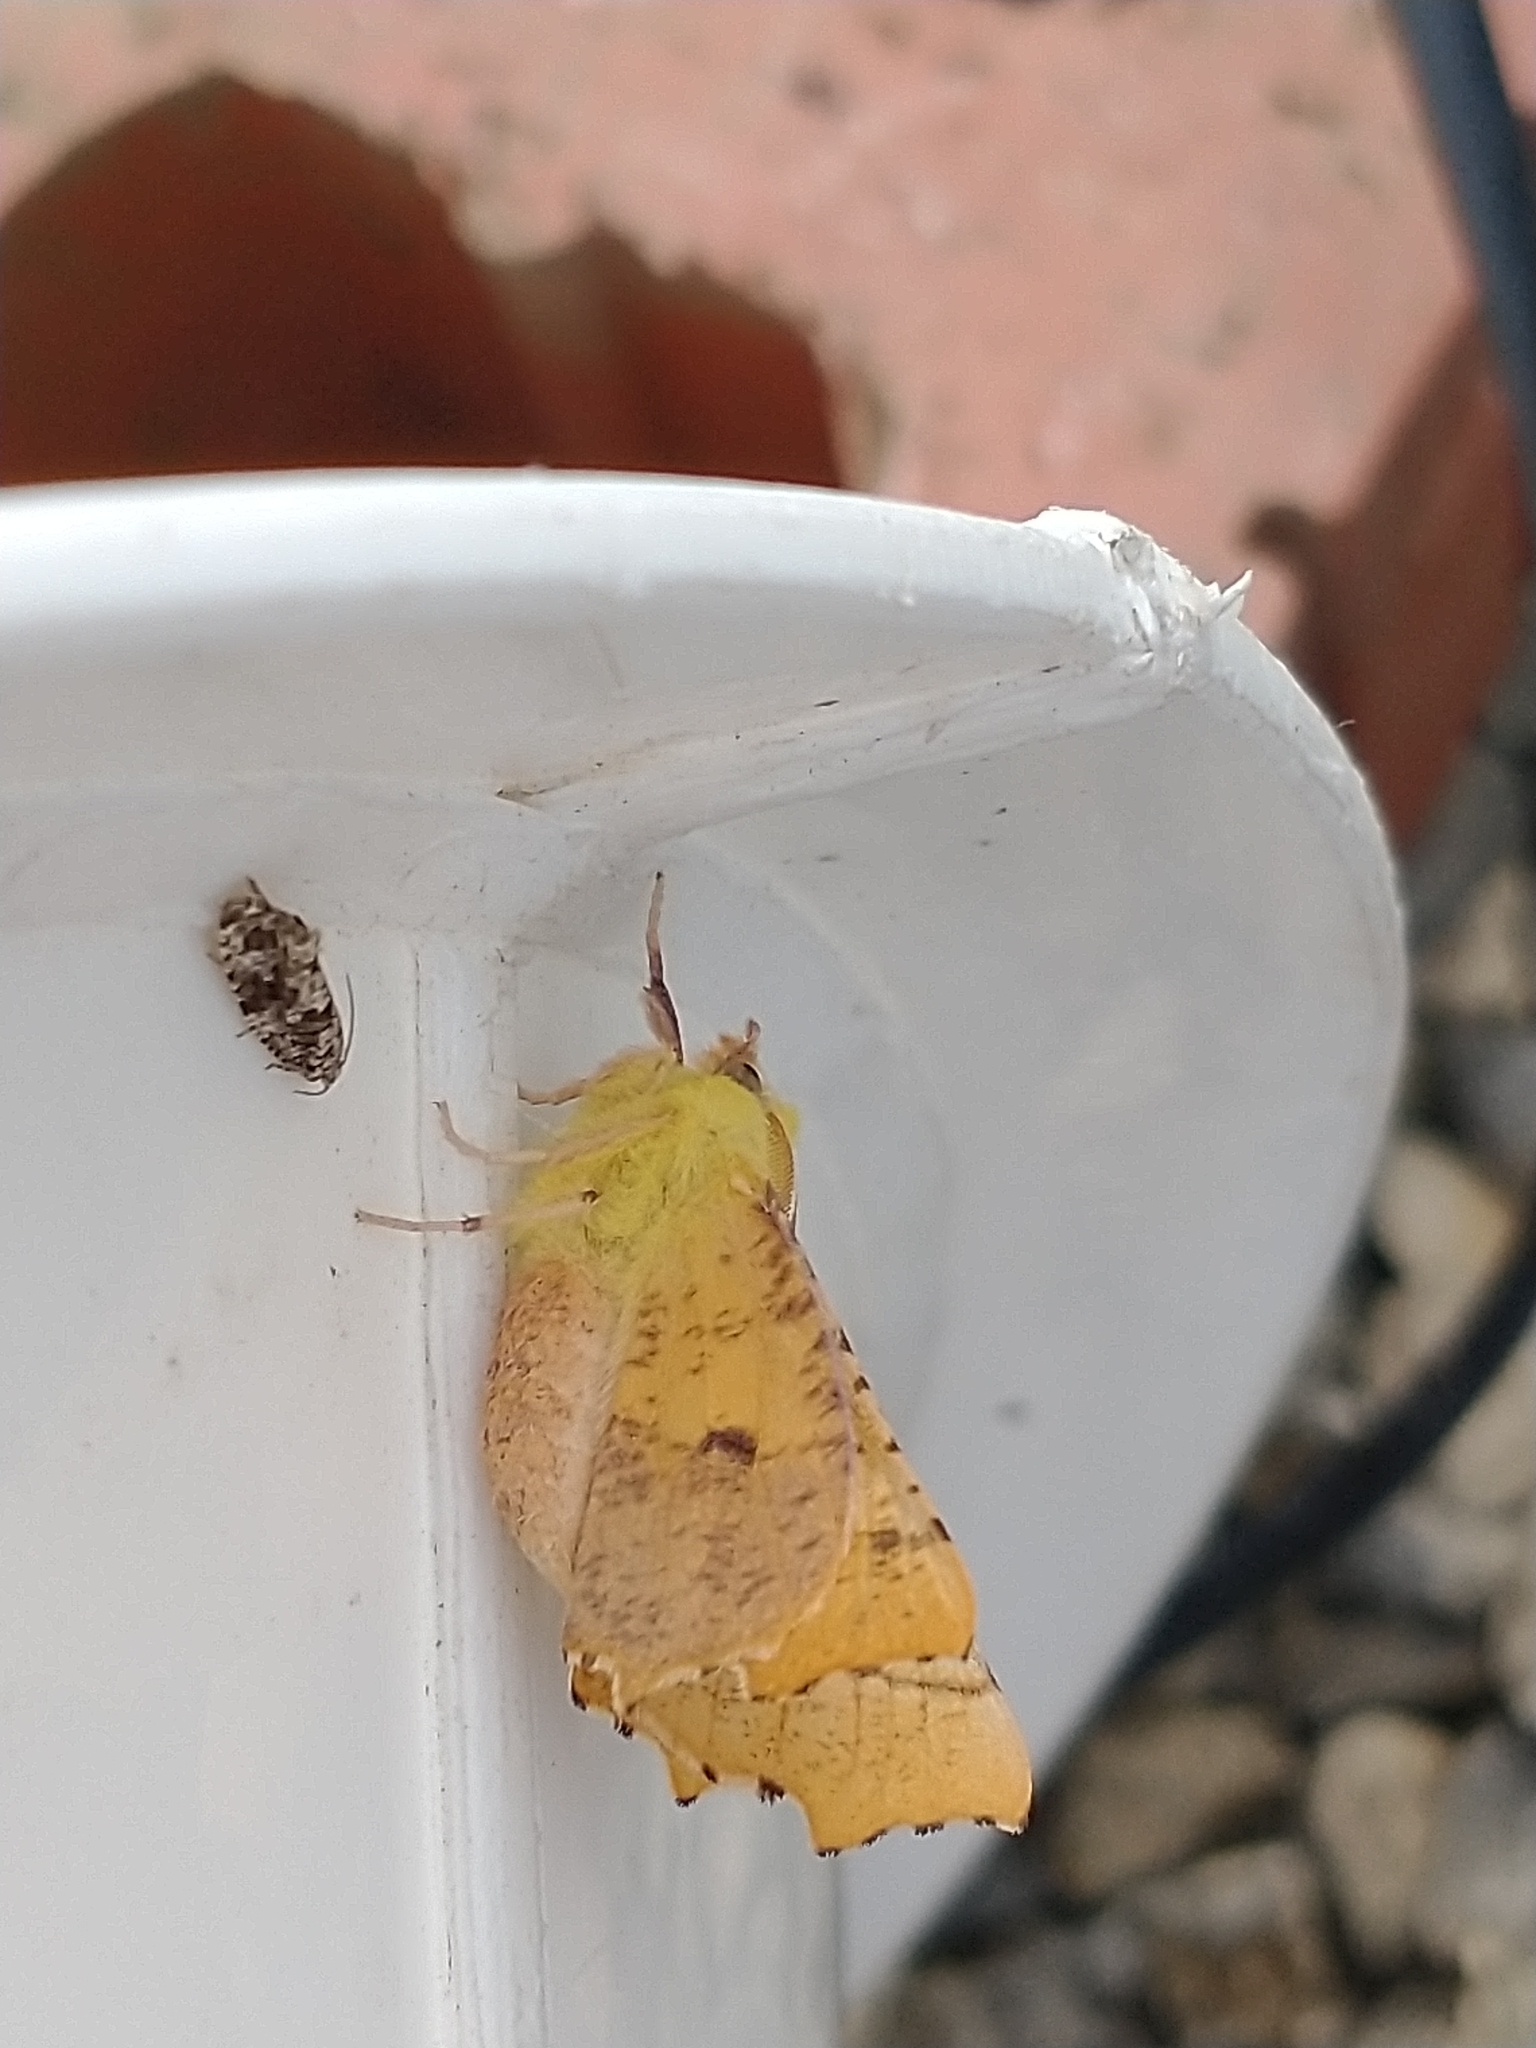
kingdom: Animalia
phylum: Arthropoda
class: Insecta
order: Lepidoptera
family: Geometridae
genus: Ennomos
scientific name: Ennomos alniaria
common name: Canary-shouldered thorn
